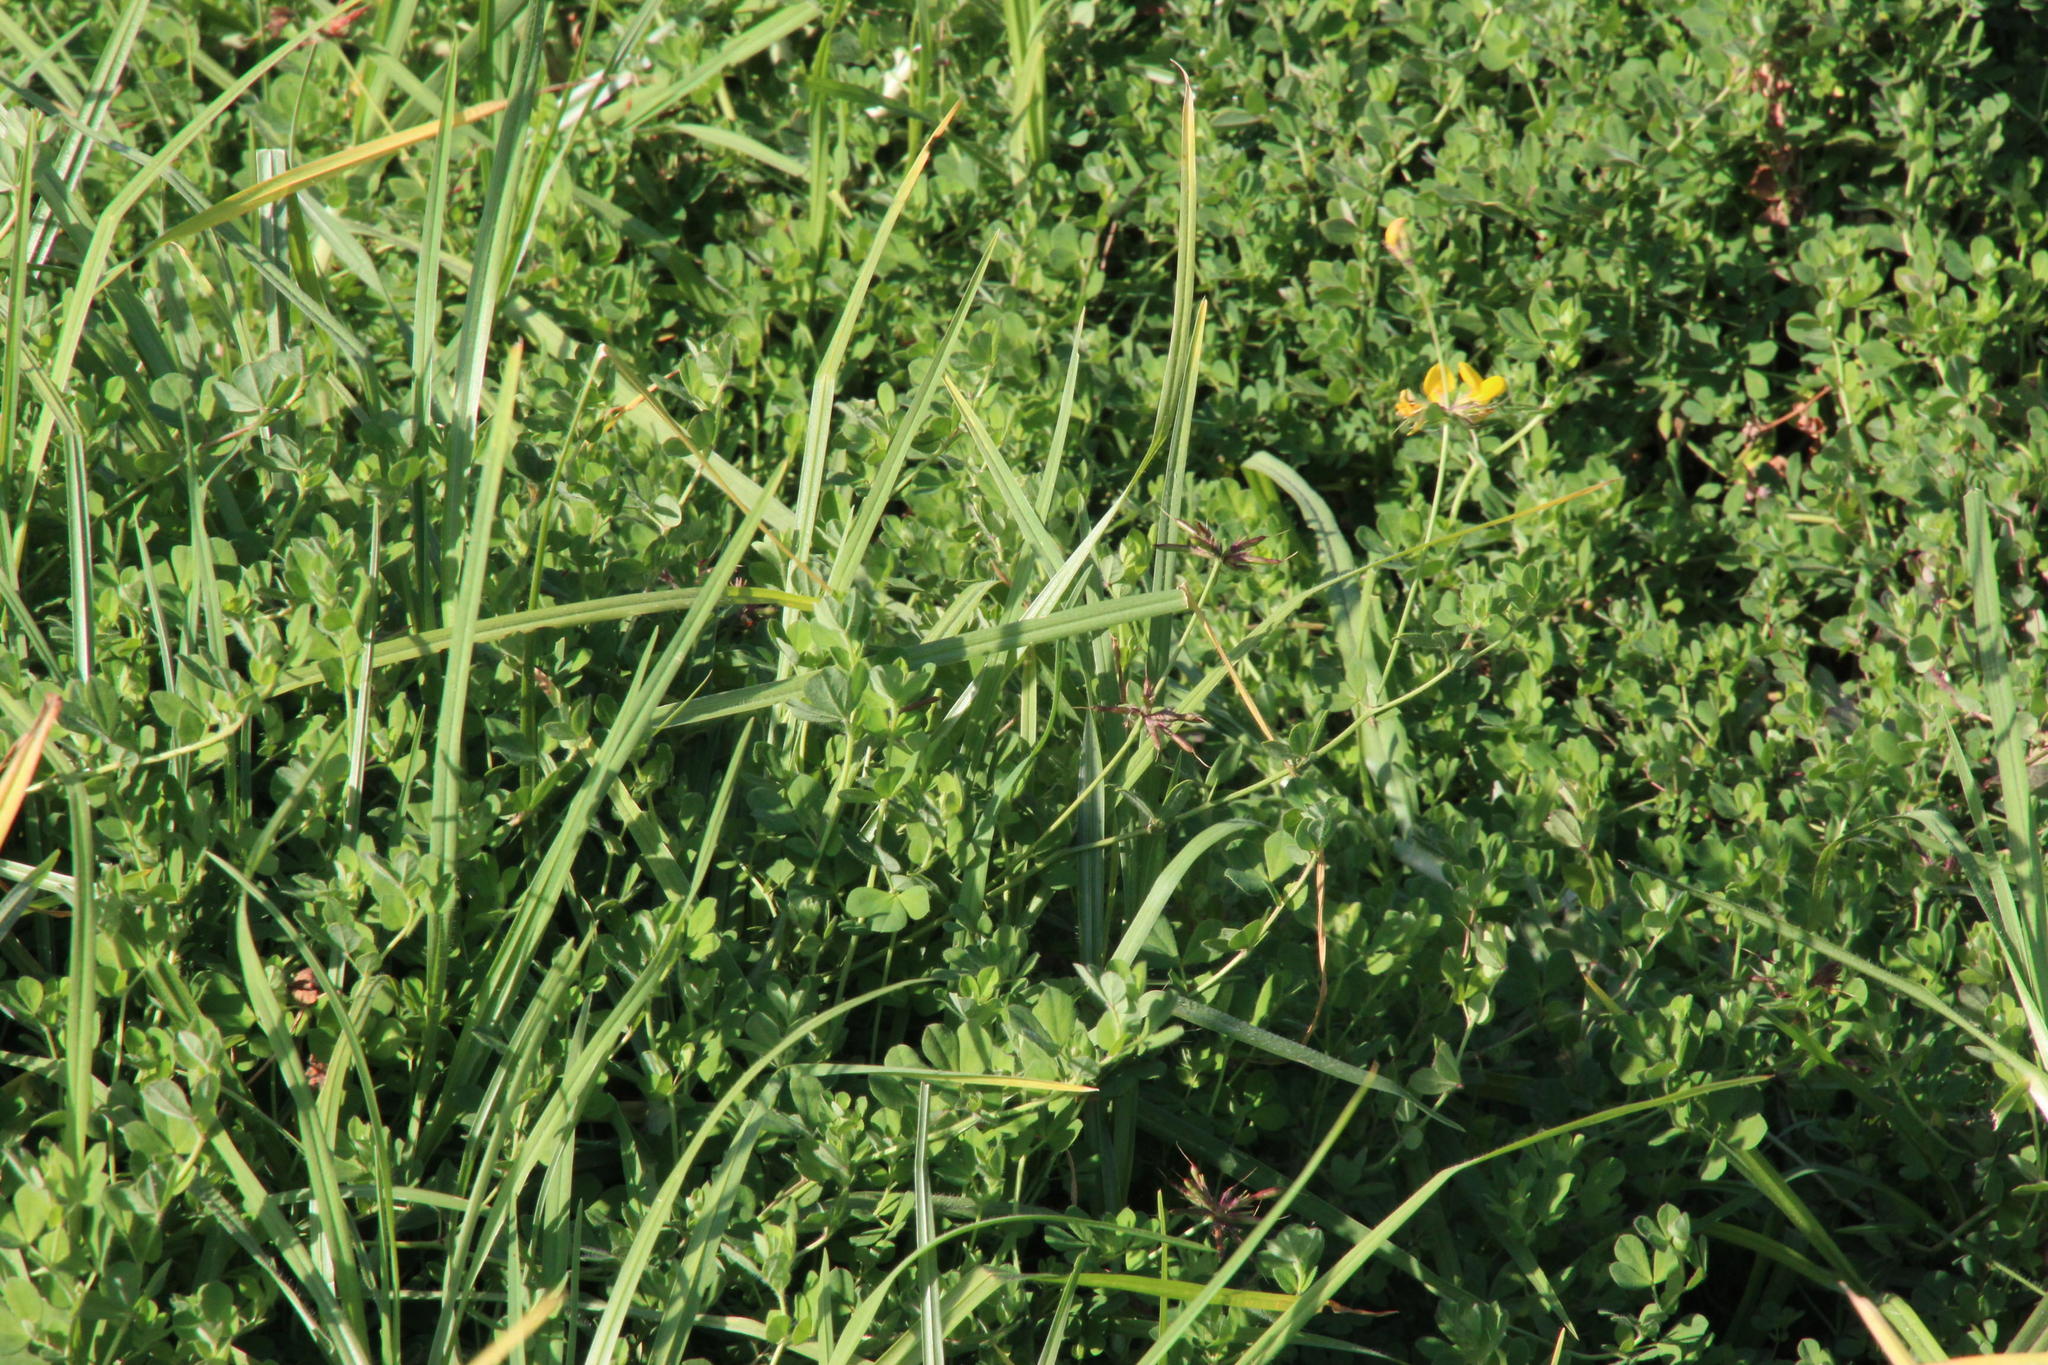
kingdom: Plantae
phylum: Tracheophyta
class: Magnoliopsida
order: Fabales
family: Fabaceae
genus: Lotus
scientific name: Lotus corniculatus
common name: Common bird's-foot-trefoil
